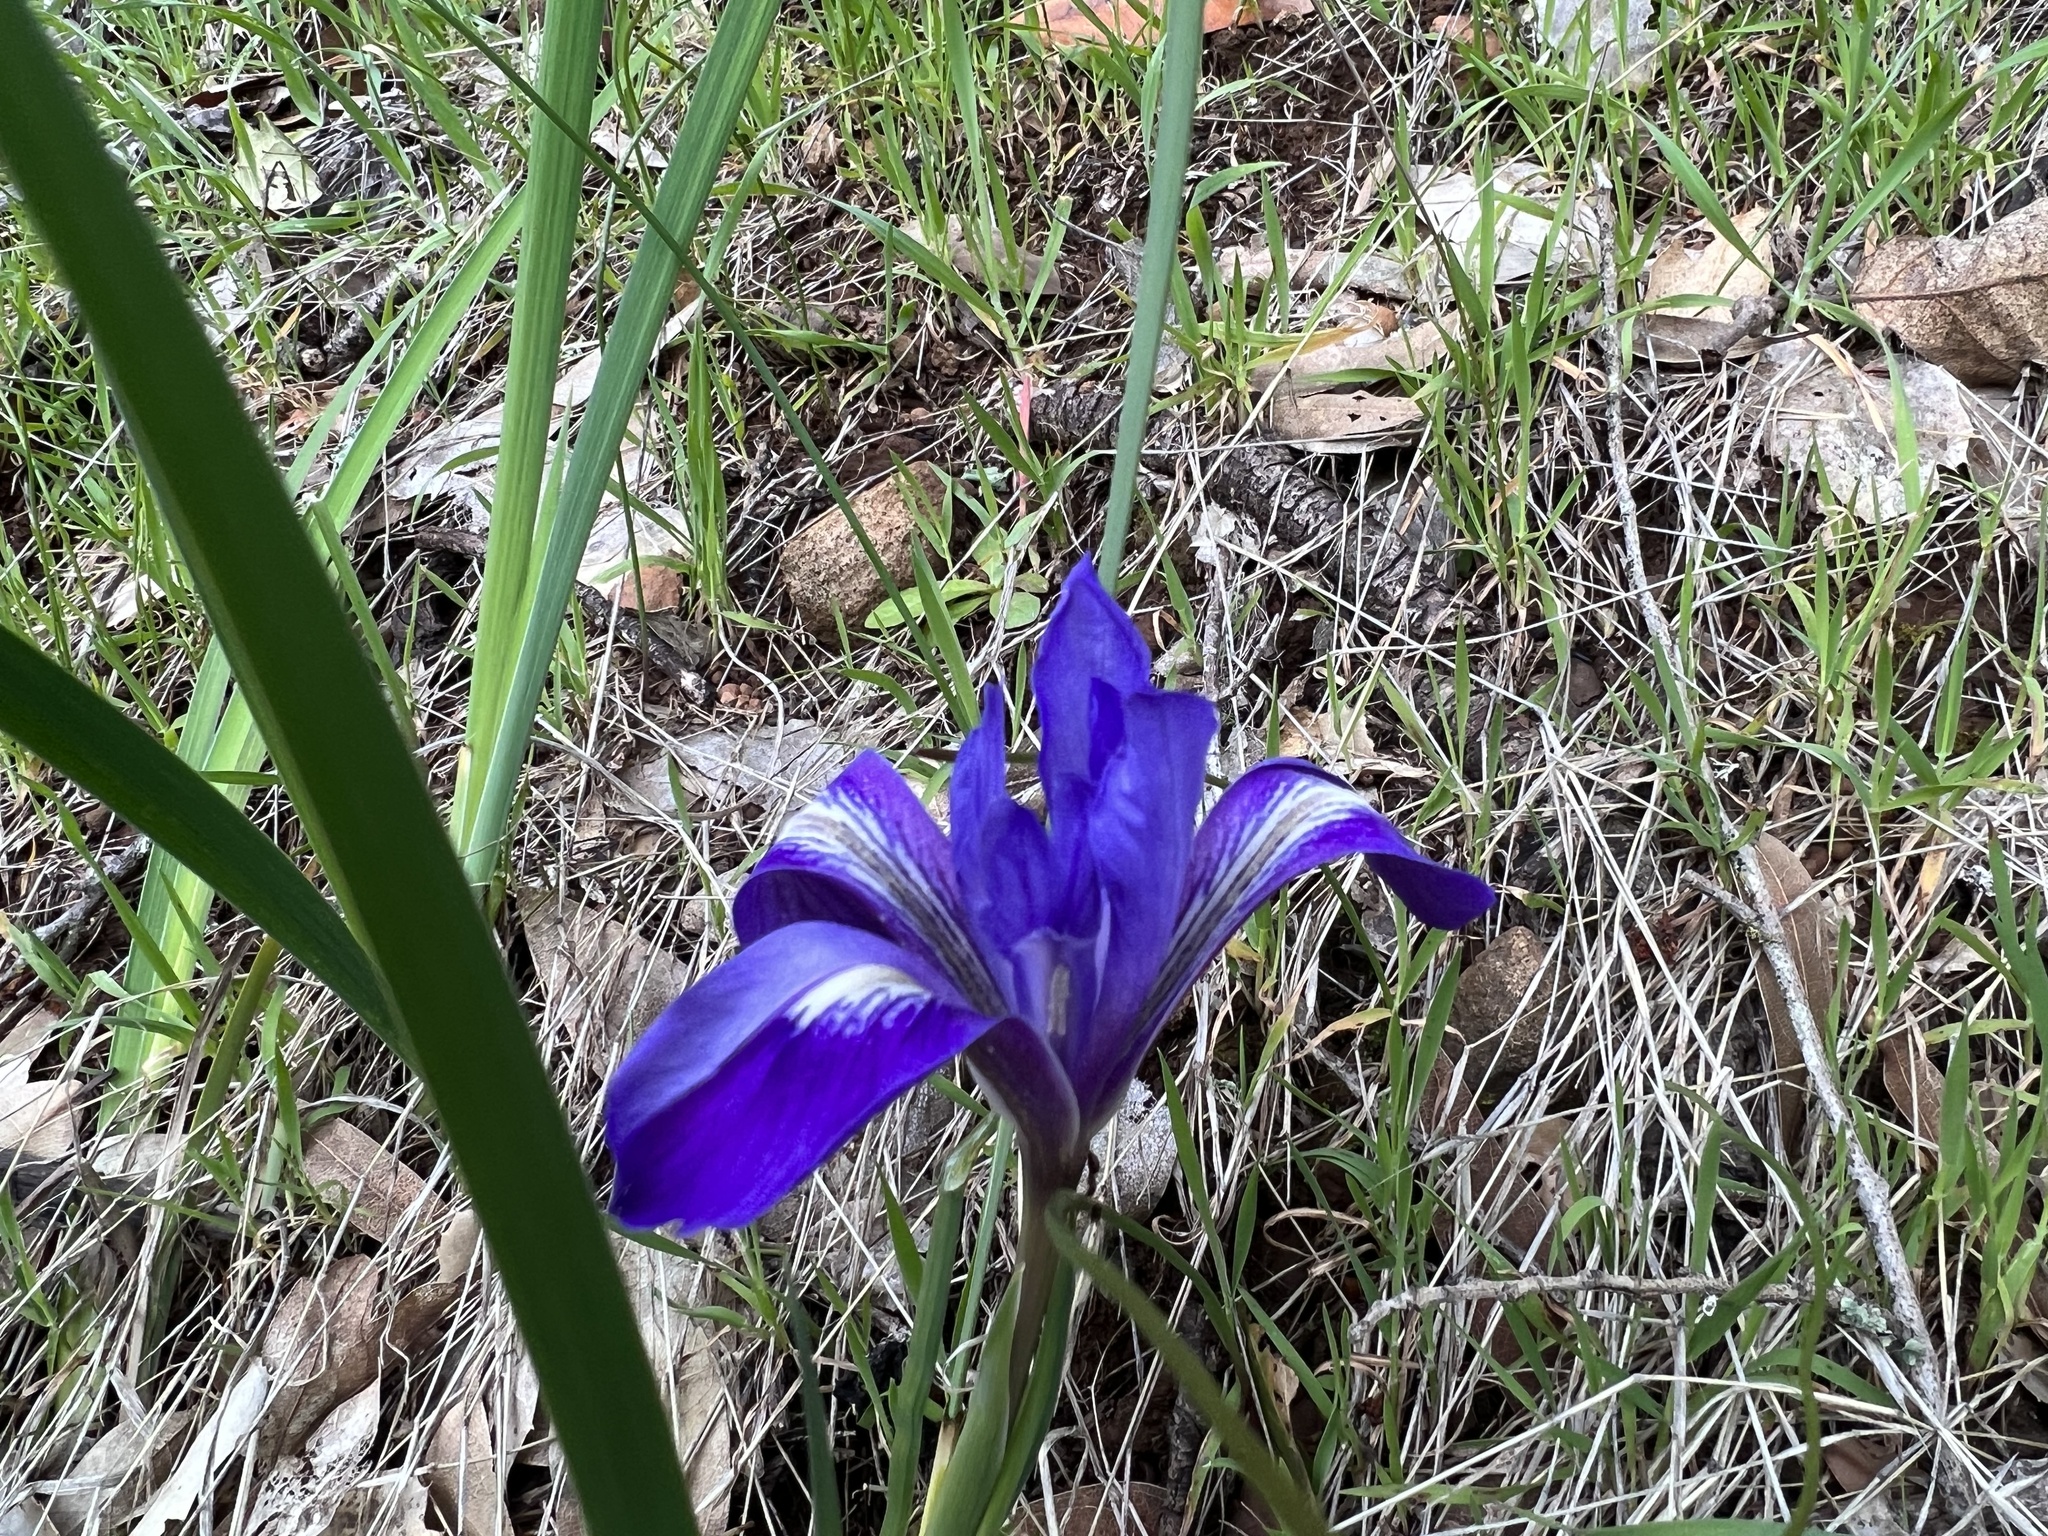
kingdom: Plantae
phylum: Tracheophyta
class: Liliopsida
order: Asparagales
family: Iridaceae
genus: Iris
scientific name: Iris macrosiphon
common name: Ground iris
